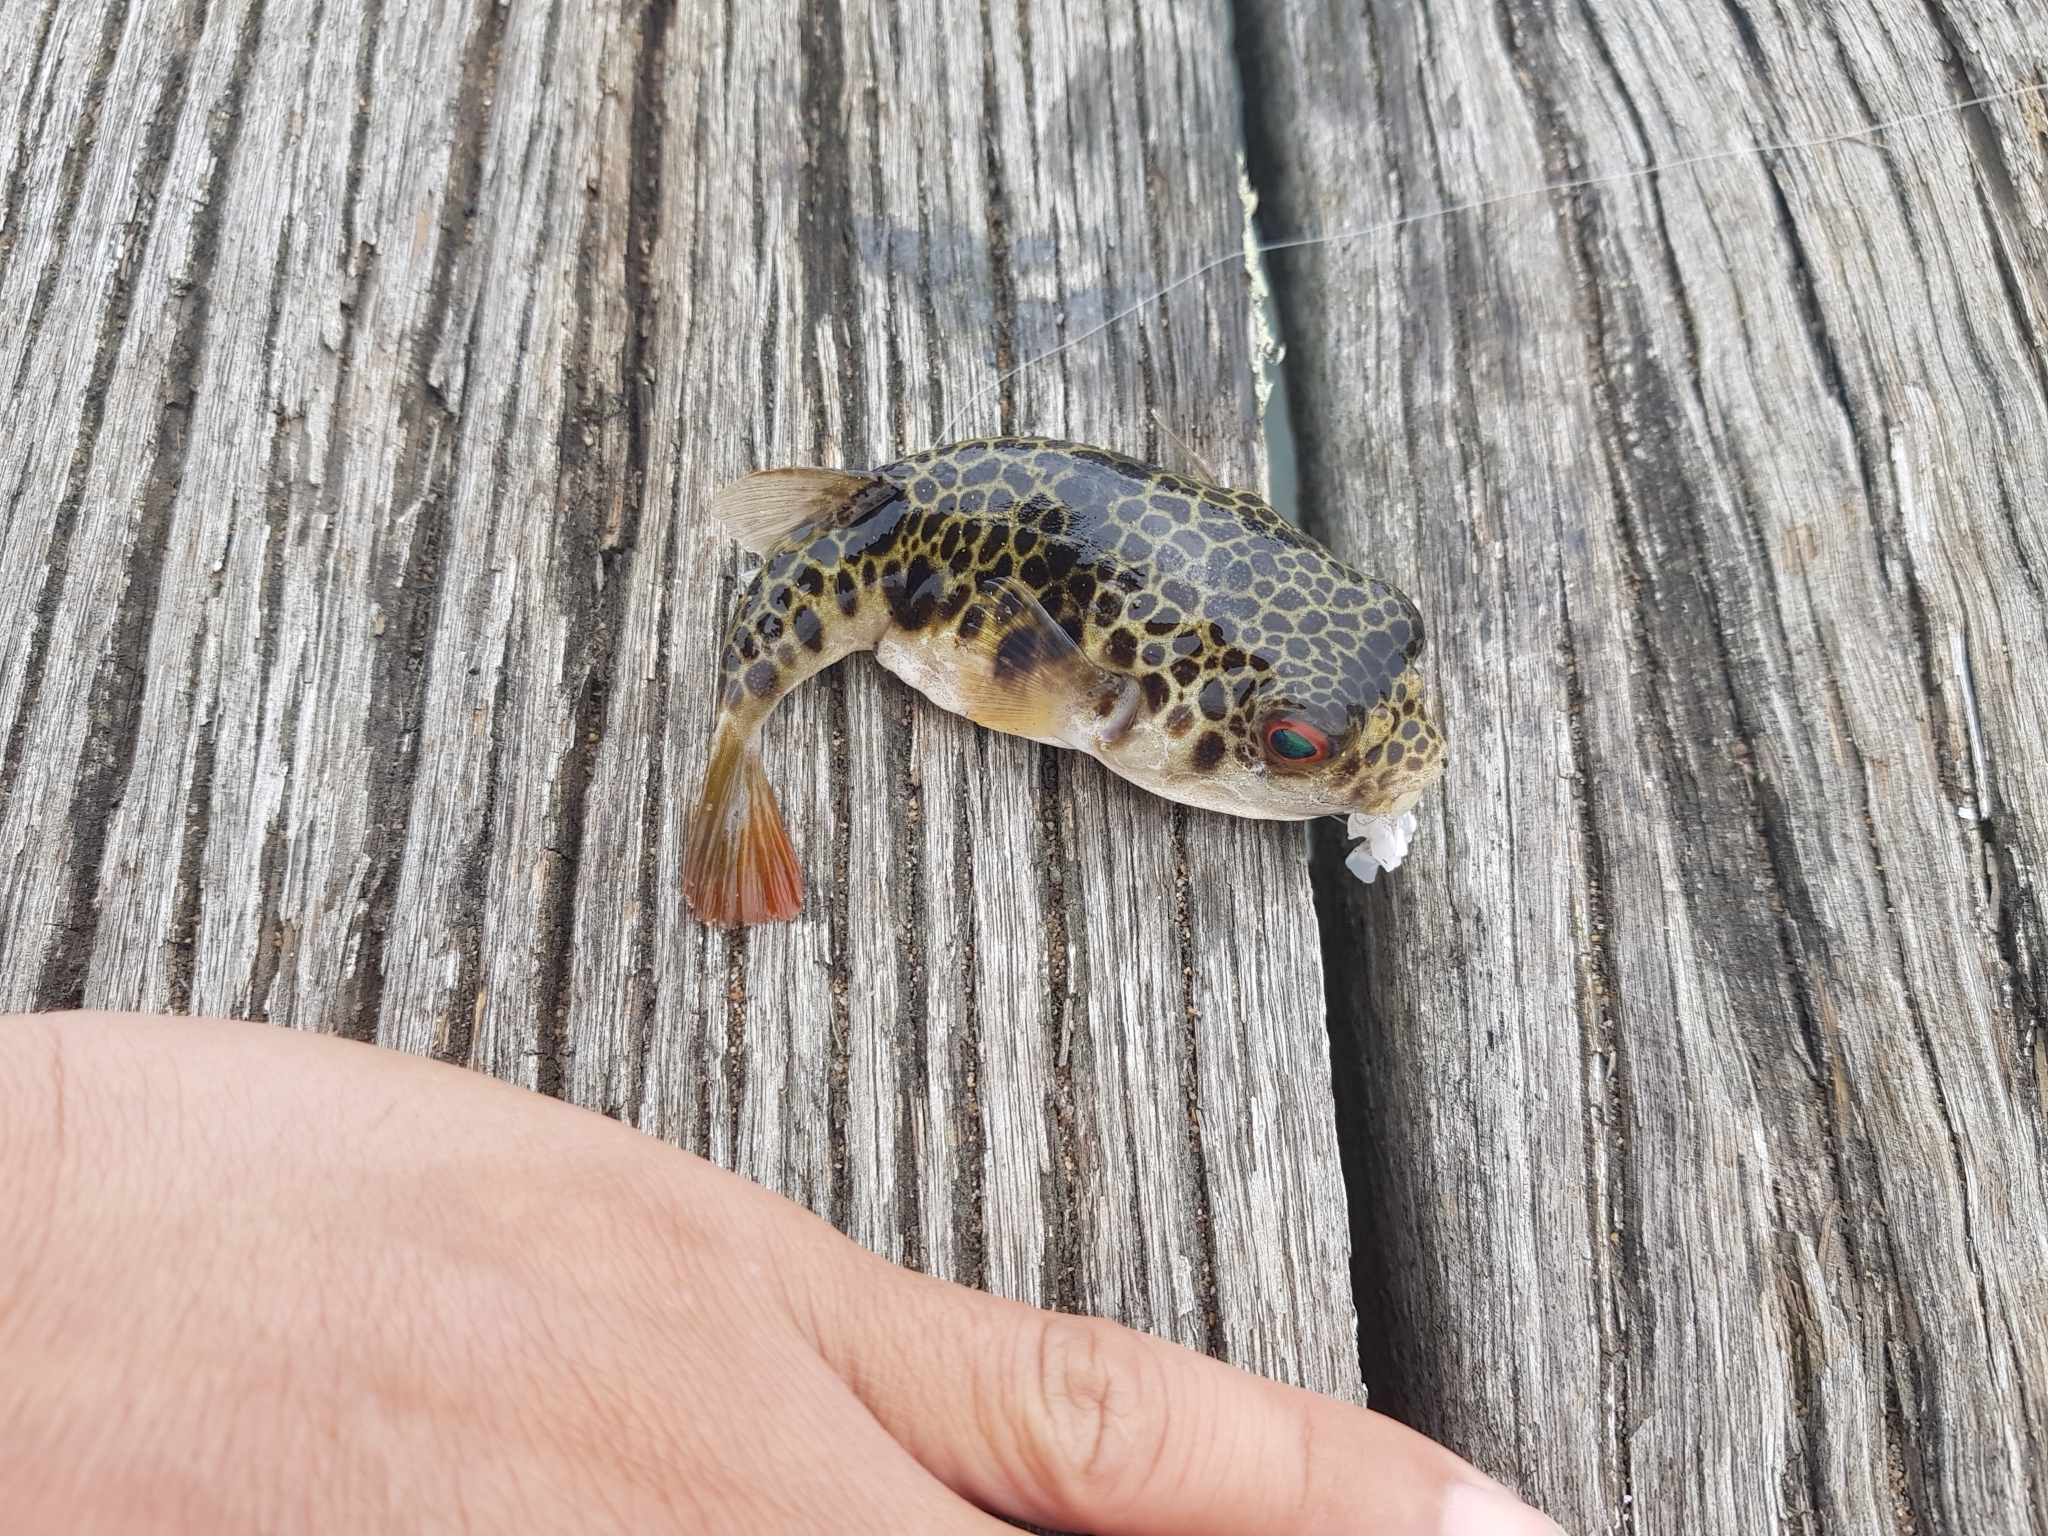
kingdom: Animalia
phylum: Chordata
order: Tetraodontiformes
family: Tetraodontidae
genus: Tetractenos
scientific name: Tetractenos glaber
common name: Smooth toadfish
